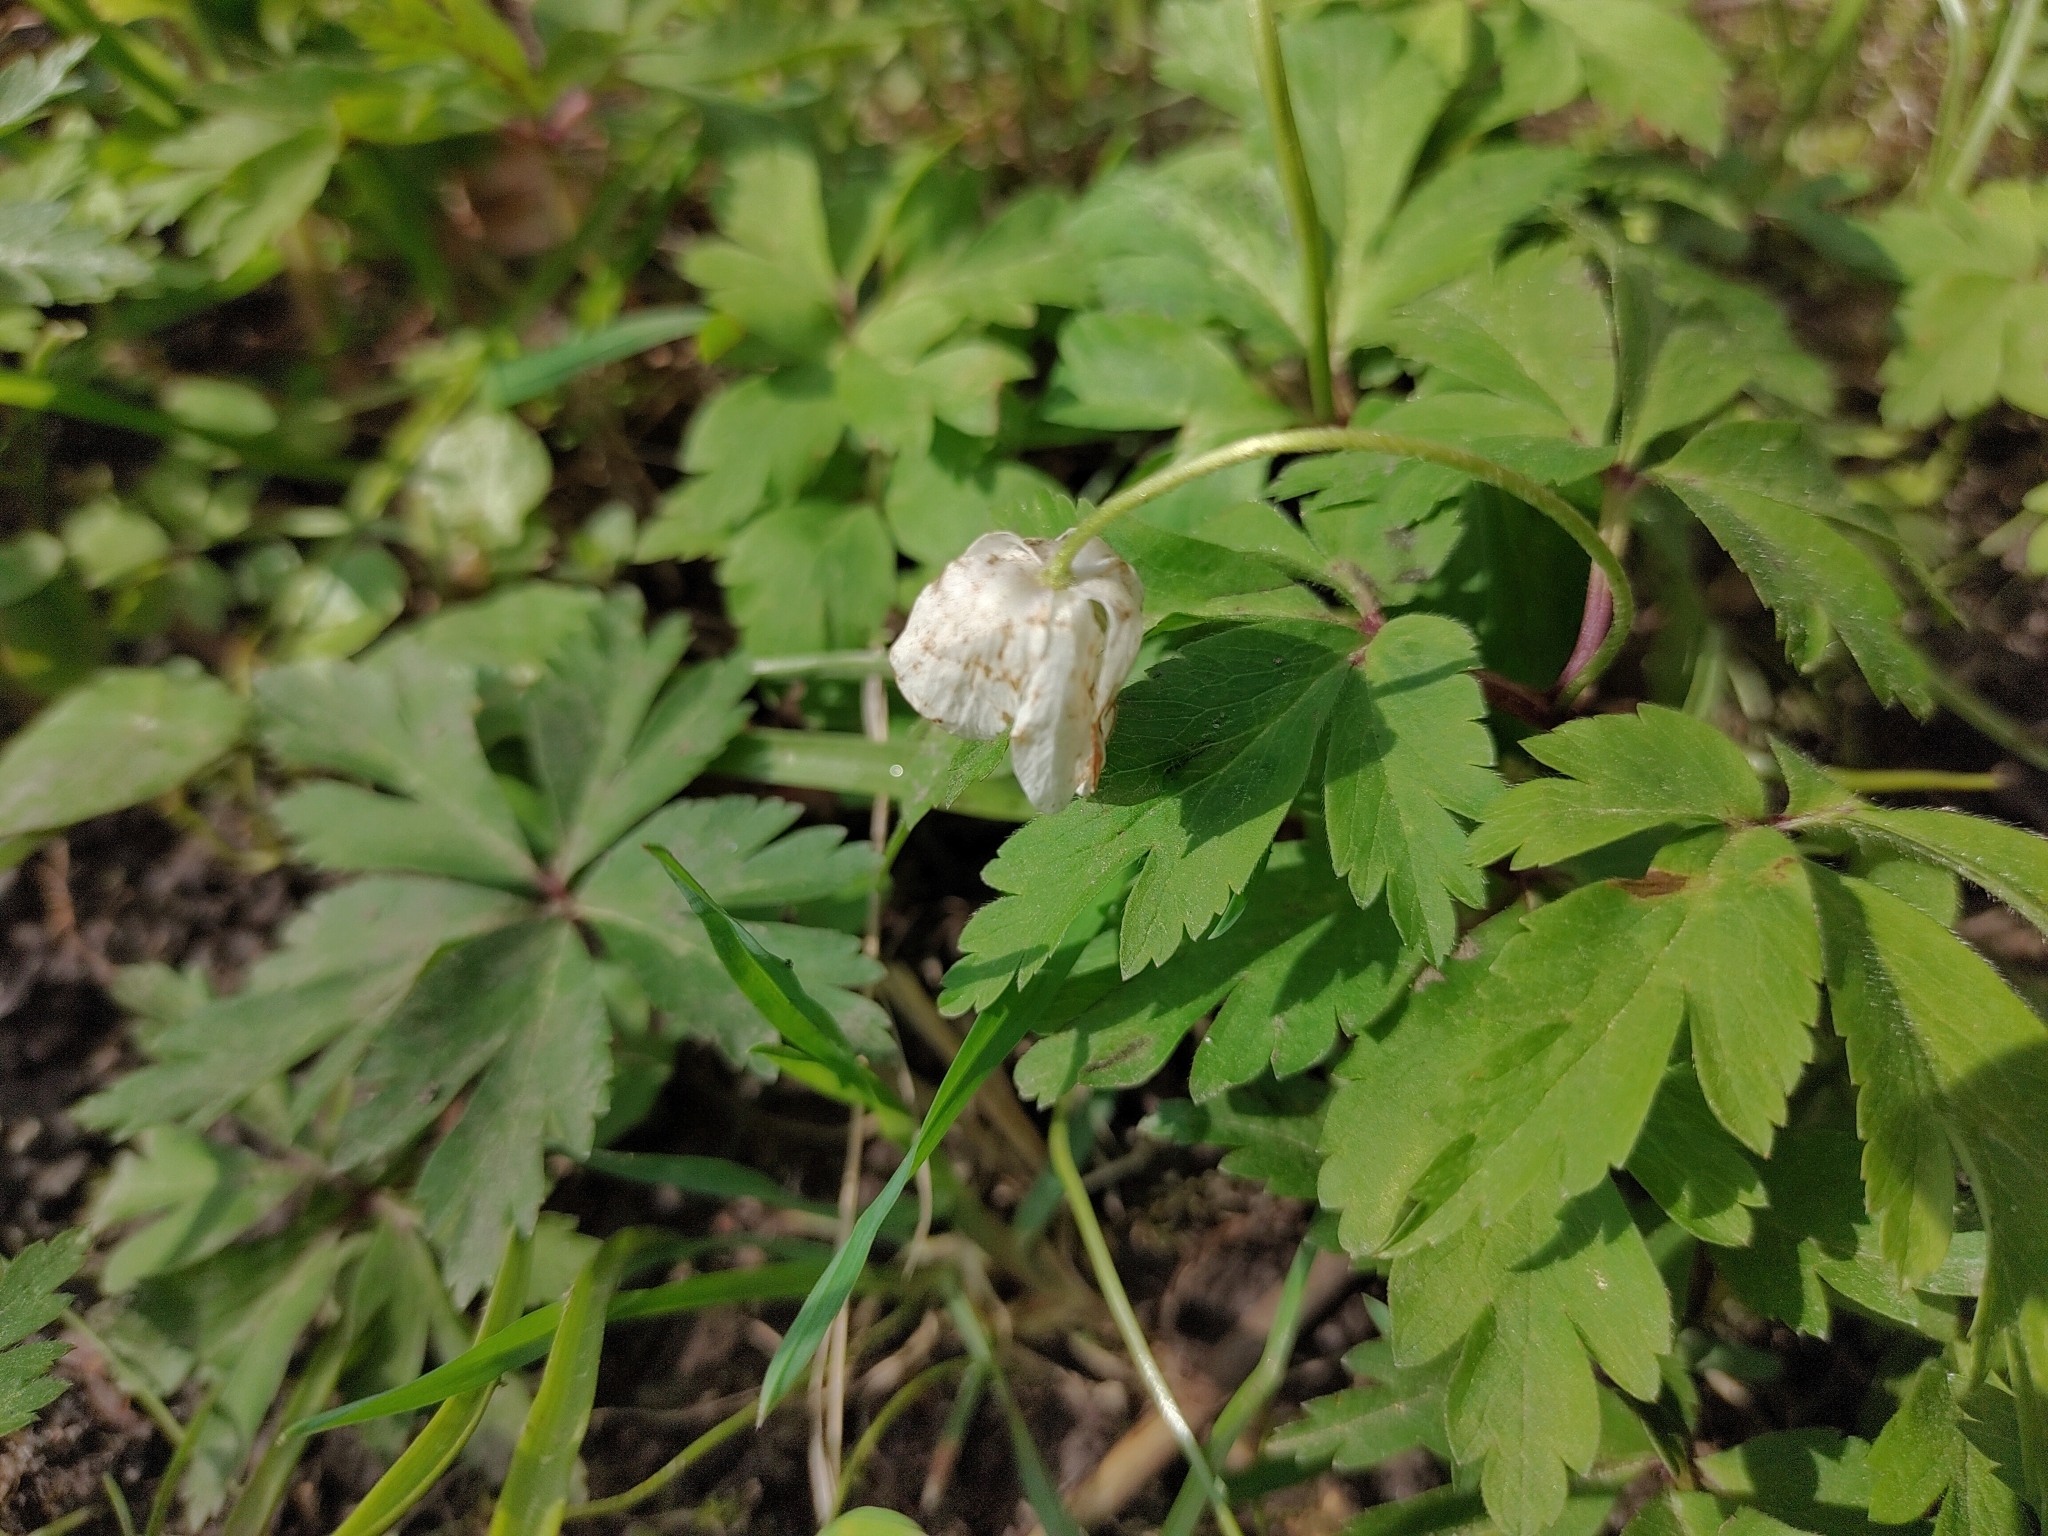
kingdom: Plantae
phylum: Tracheophyta
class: Magnoliopsida
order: Ranunculales
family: Ranunculaceae
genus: Anemone
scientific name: Anemone nemorosa
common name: Wood anemone
